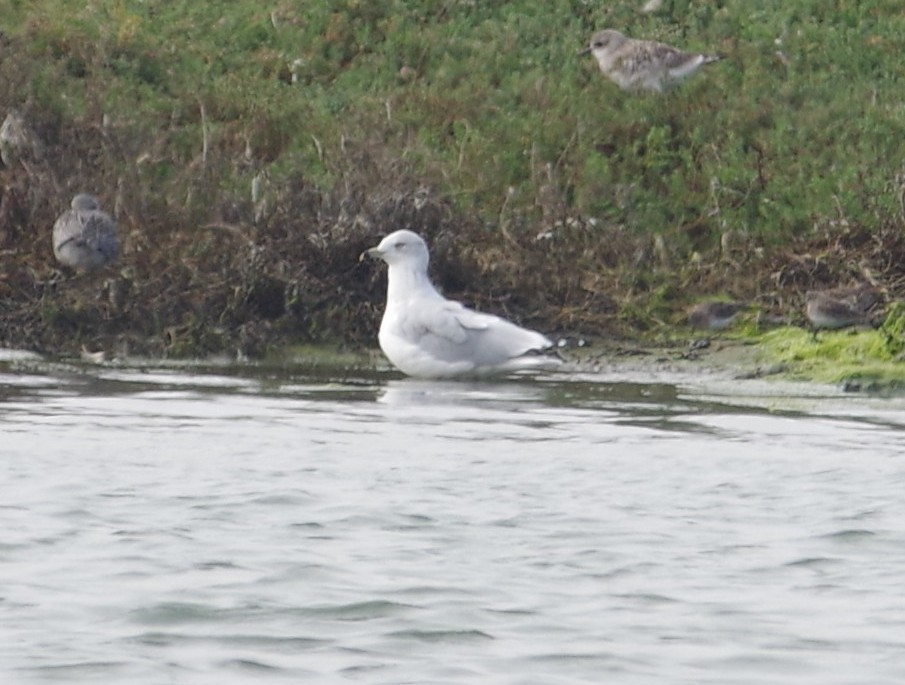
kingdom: Animalia
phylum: Chordata
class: Aves
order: Charadriiformes
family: Laridae
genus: Larus
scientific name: Larus delawarensis
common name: Ring-billed gull
